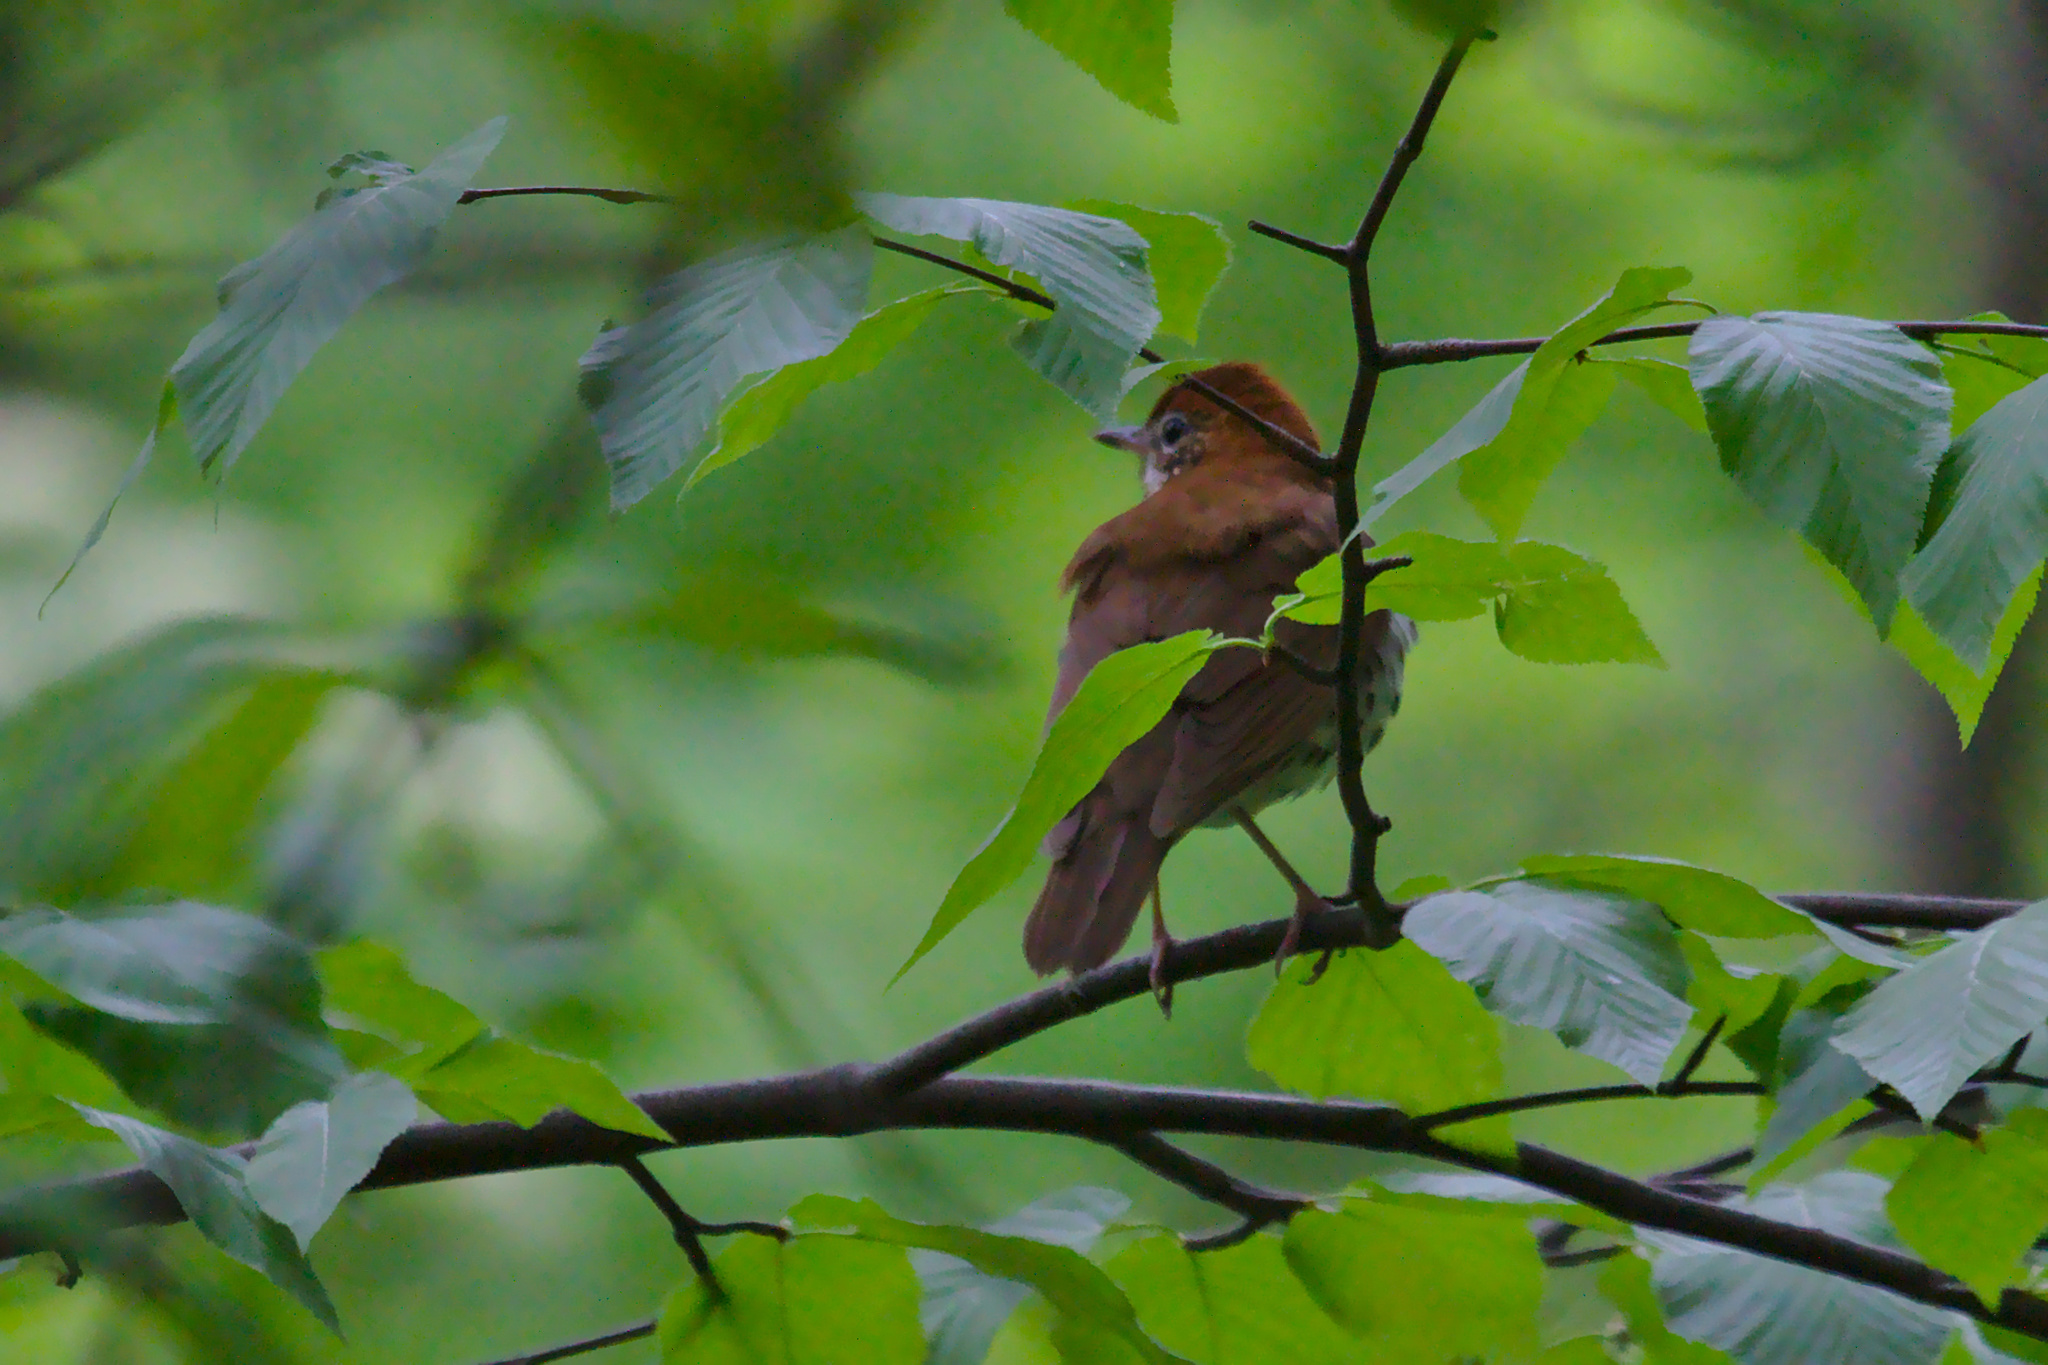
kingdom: Animalia
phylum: Chordata
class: Aves
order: Passeriformes
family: Turdidae
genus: Hylocichla
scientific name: Hylocichla mustelina
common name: Wood thrush
